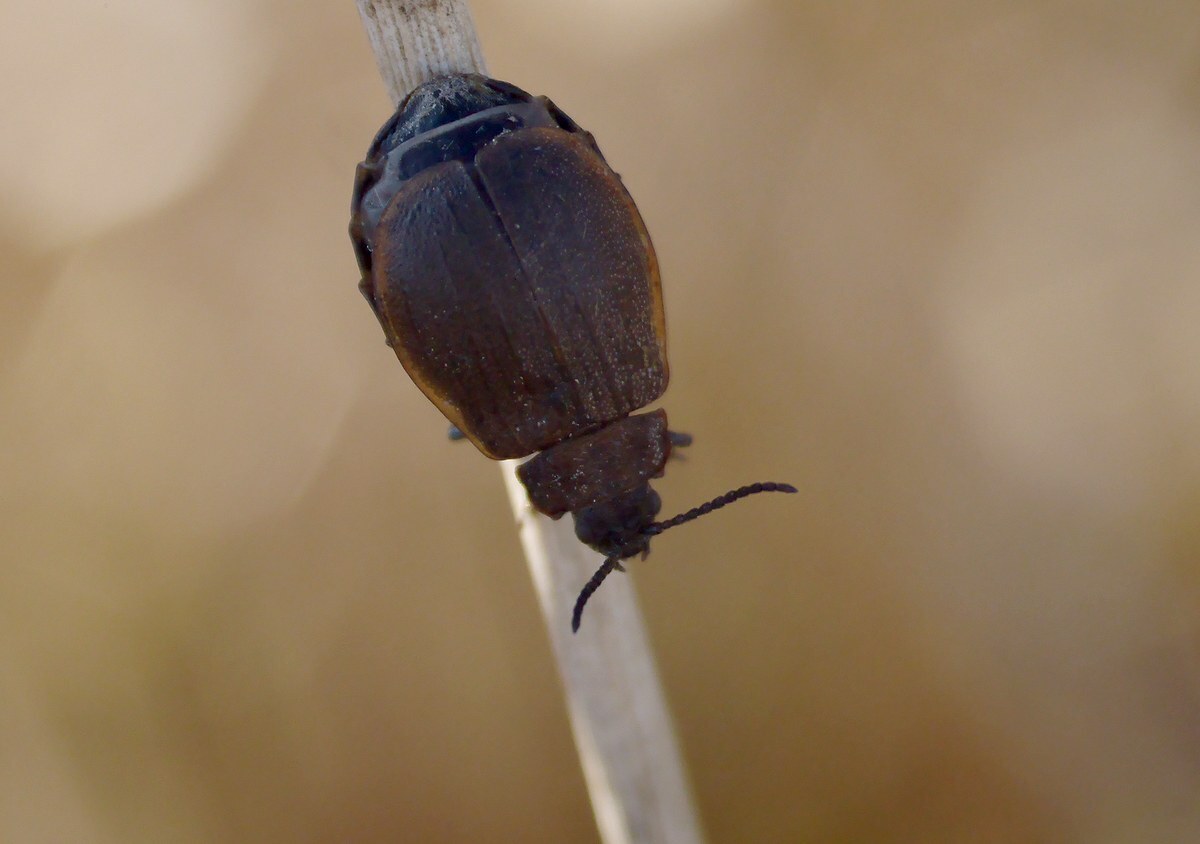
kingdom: Animalia
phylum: Arthropoda
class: Insecta
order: Coleoptera
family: Chrysomelidae
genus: Galeruca
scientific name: Galeruca pomonae
